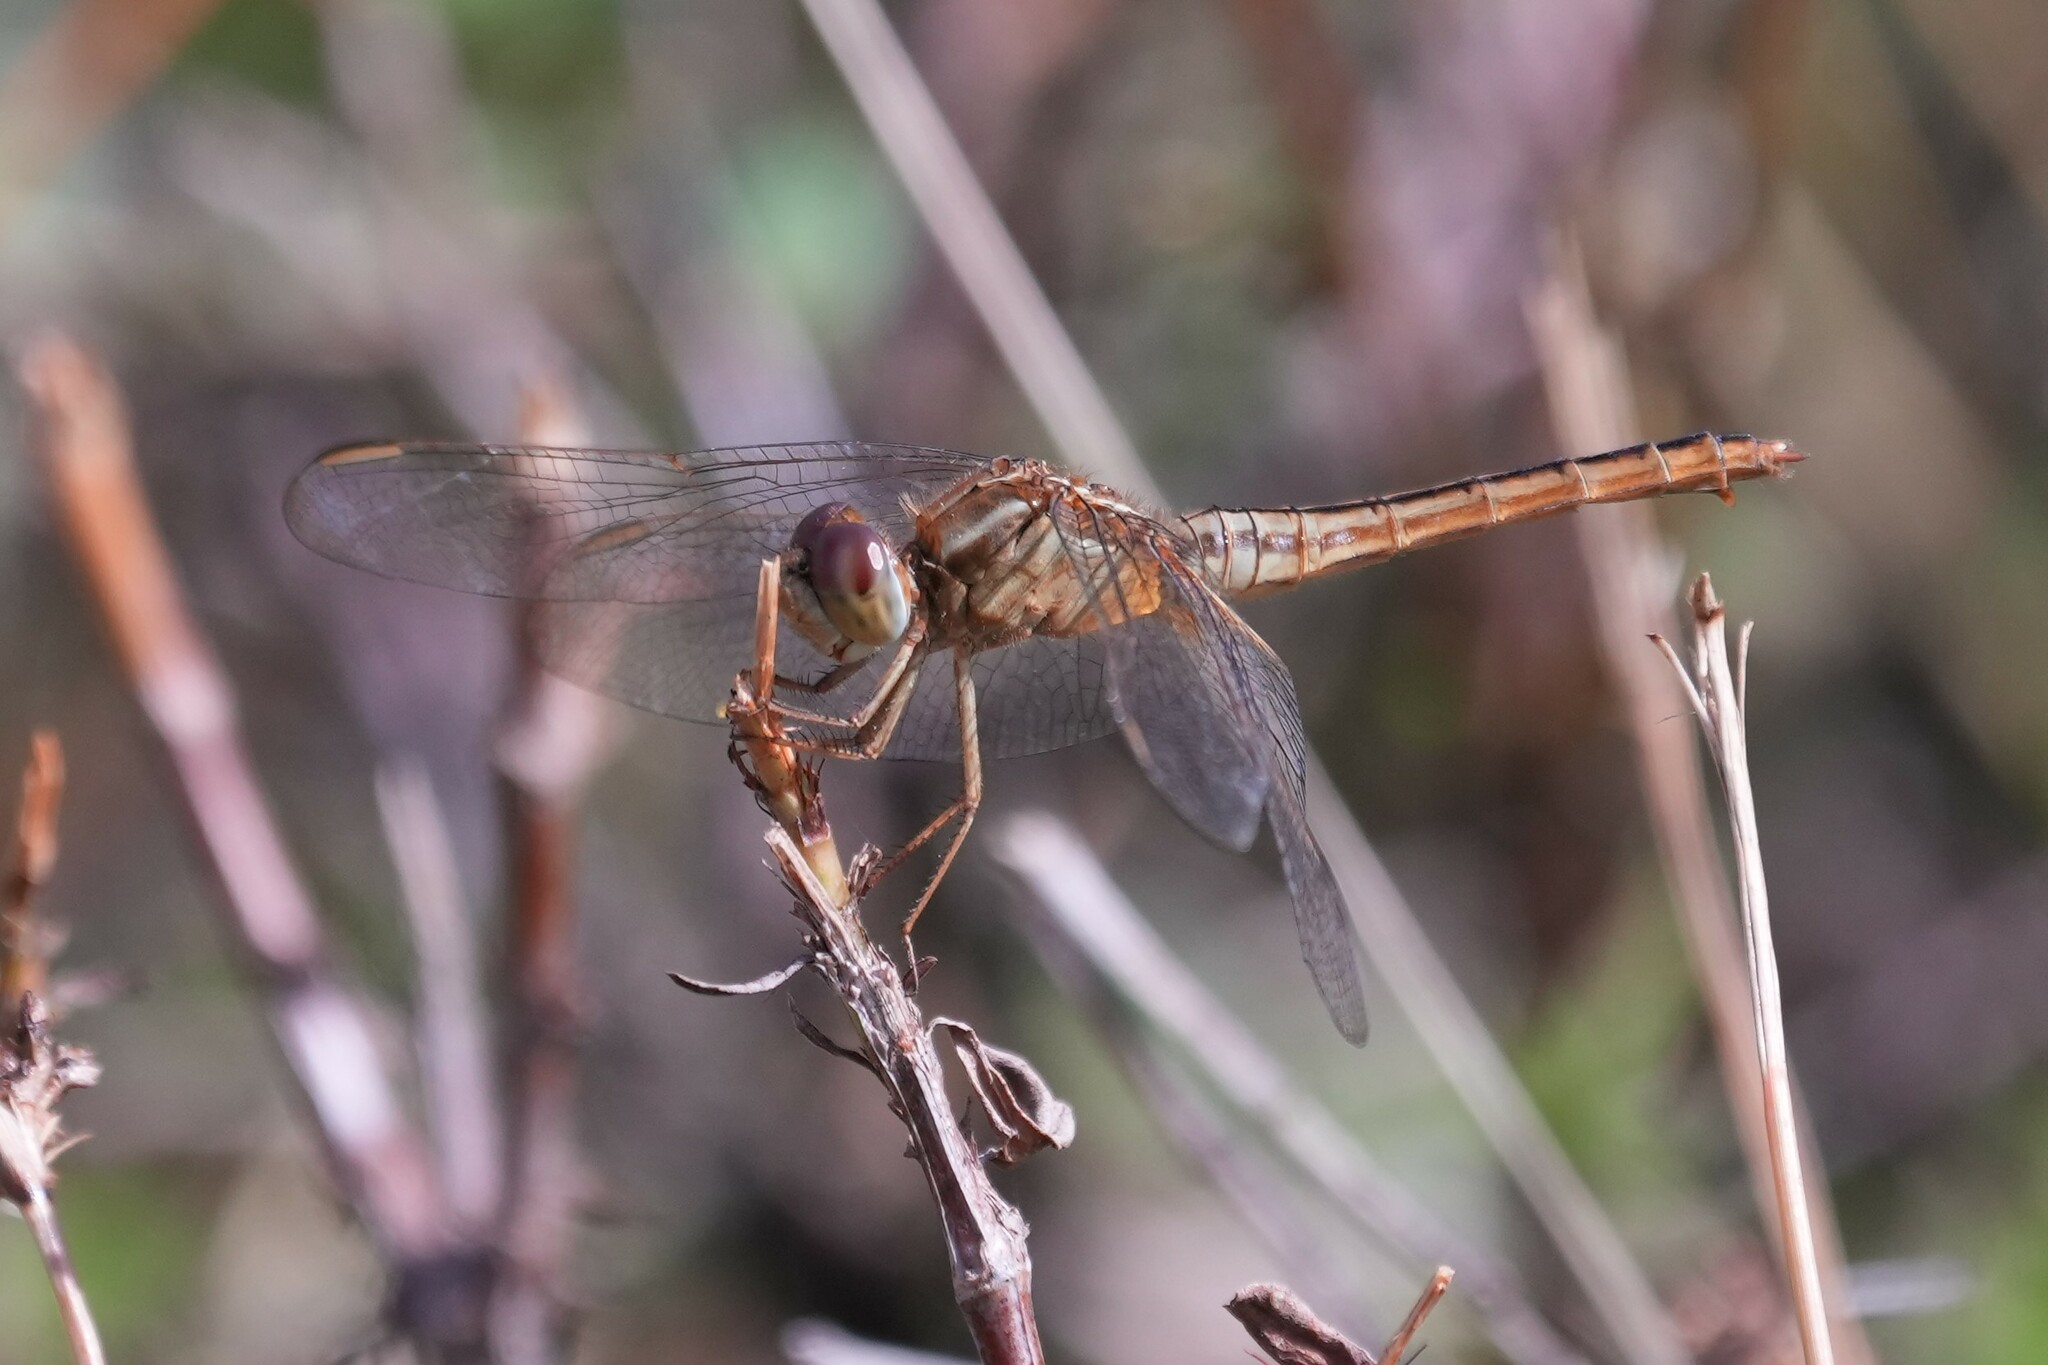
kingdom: Animalia
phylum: Arthropoda
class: Insecta
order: Odonata
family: Libellulidae
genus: Crocothemis
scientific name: Crocothemis servilia
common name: Scarlet skimmer
